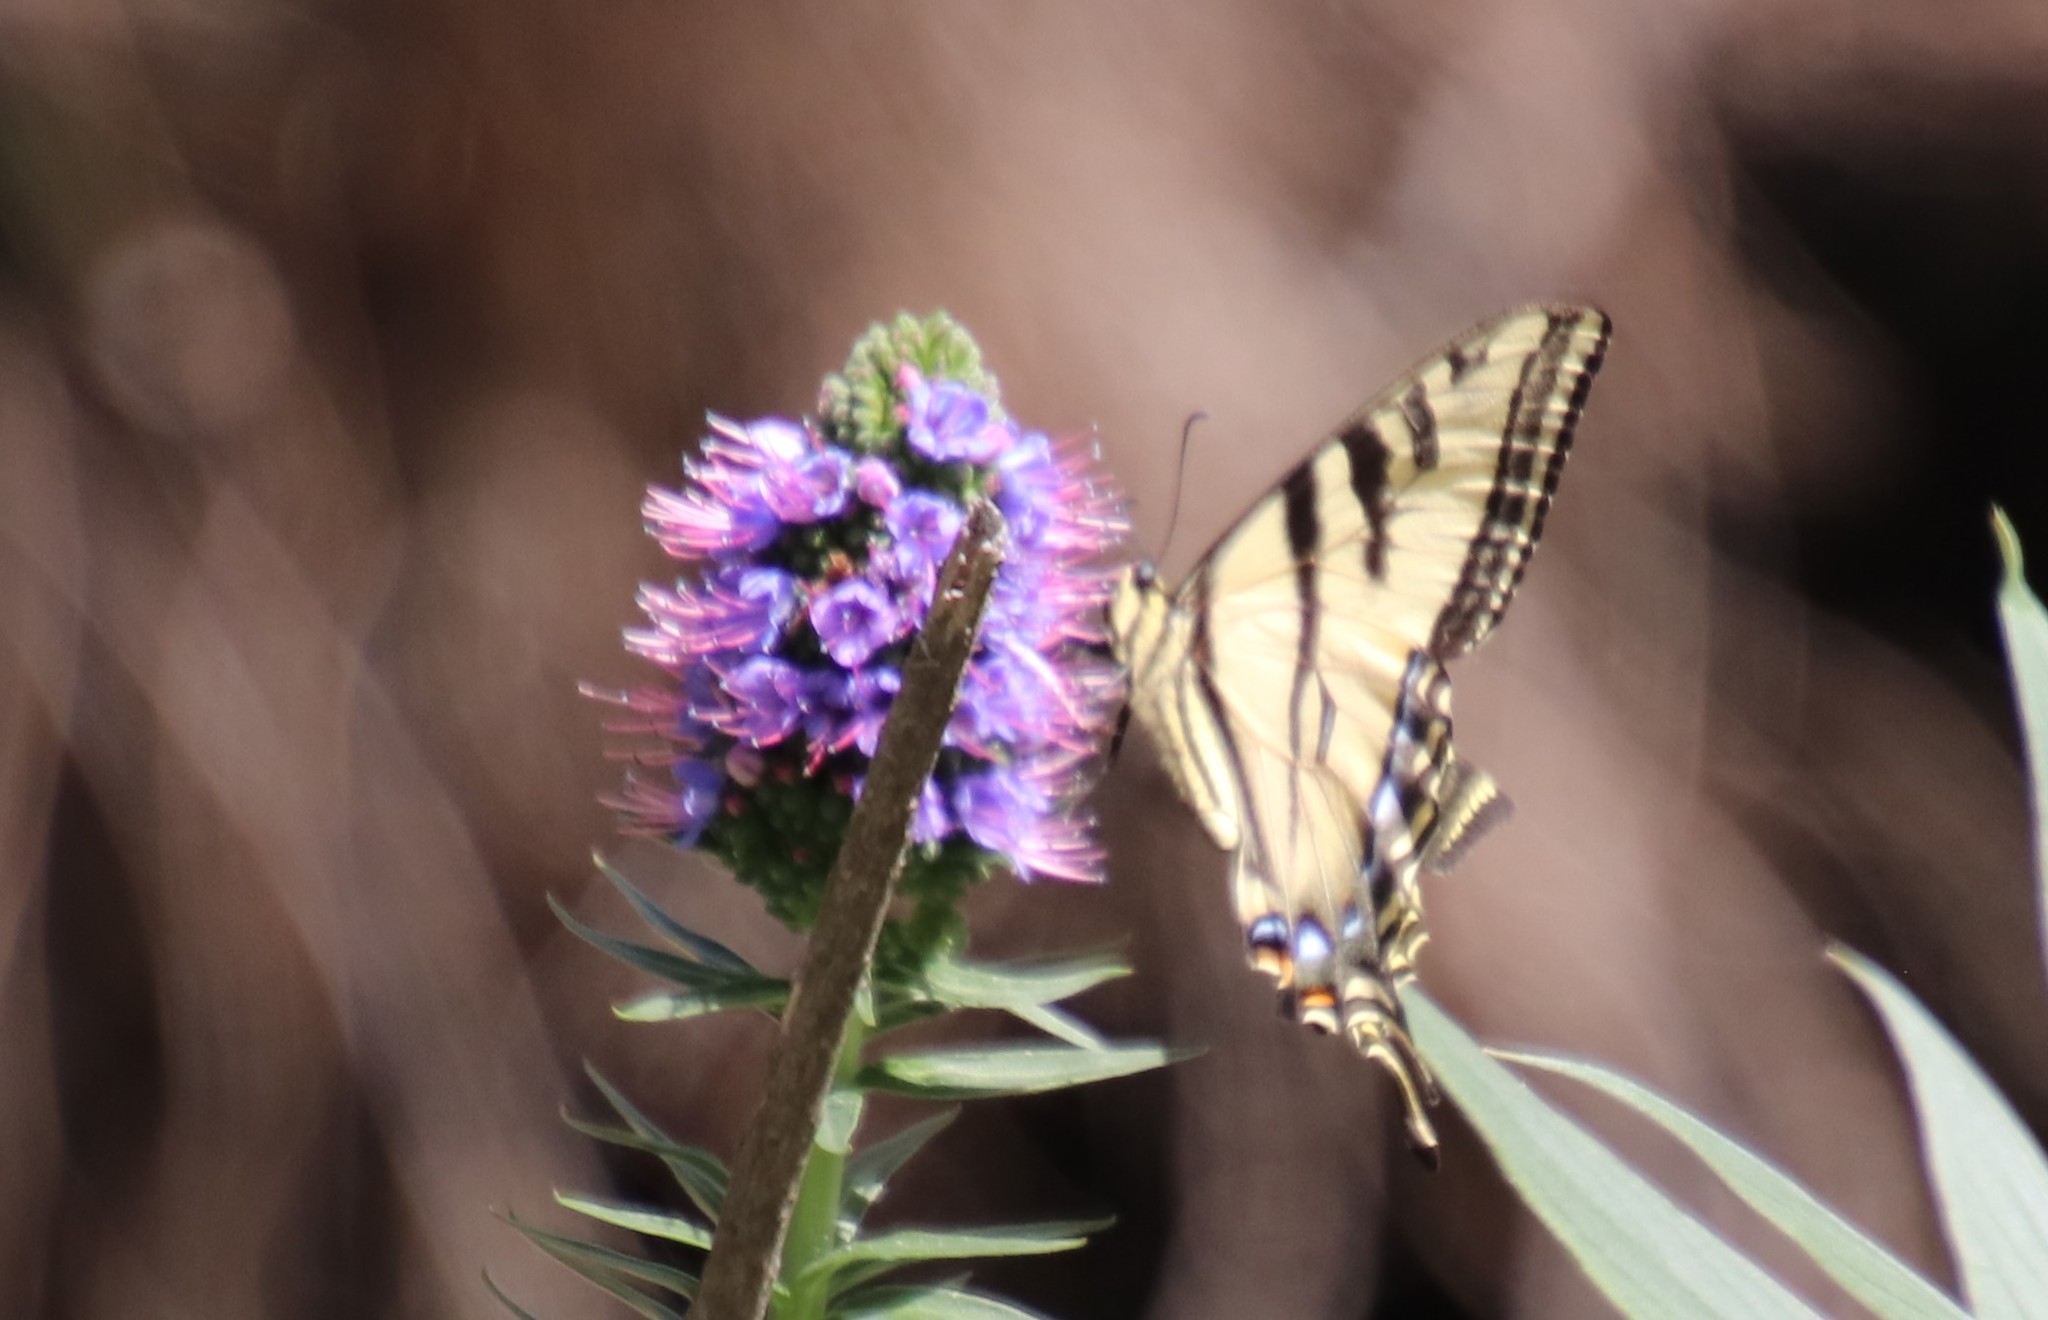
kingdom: Animalia
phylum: Arthropoda
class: Insecta
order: Lepidoptera
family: Papilionidae
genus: Papilio
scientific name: Papilio rutulus
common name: Western tiger swallowtail
